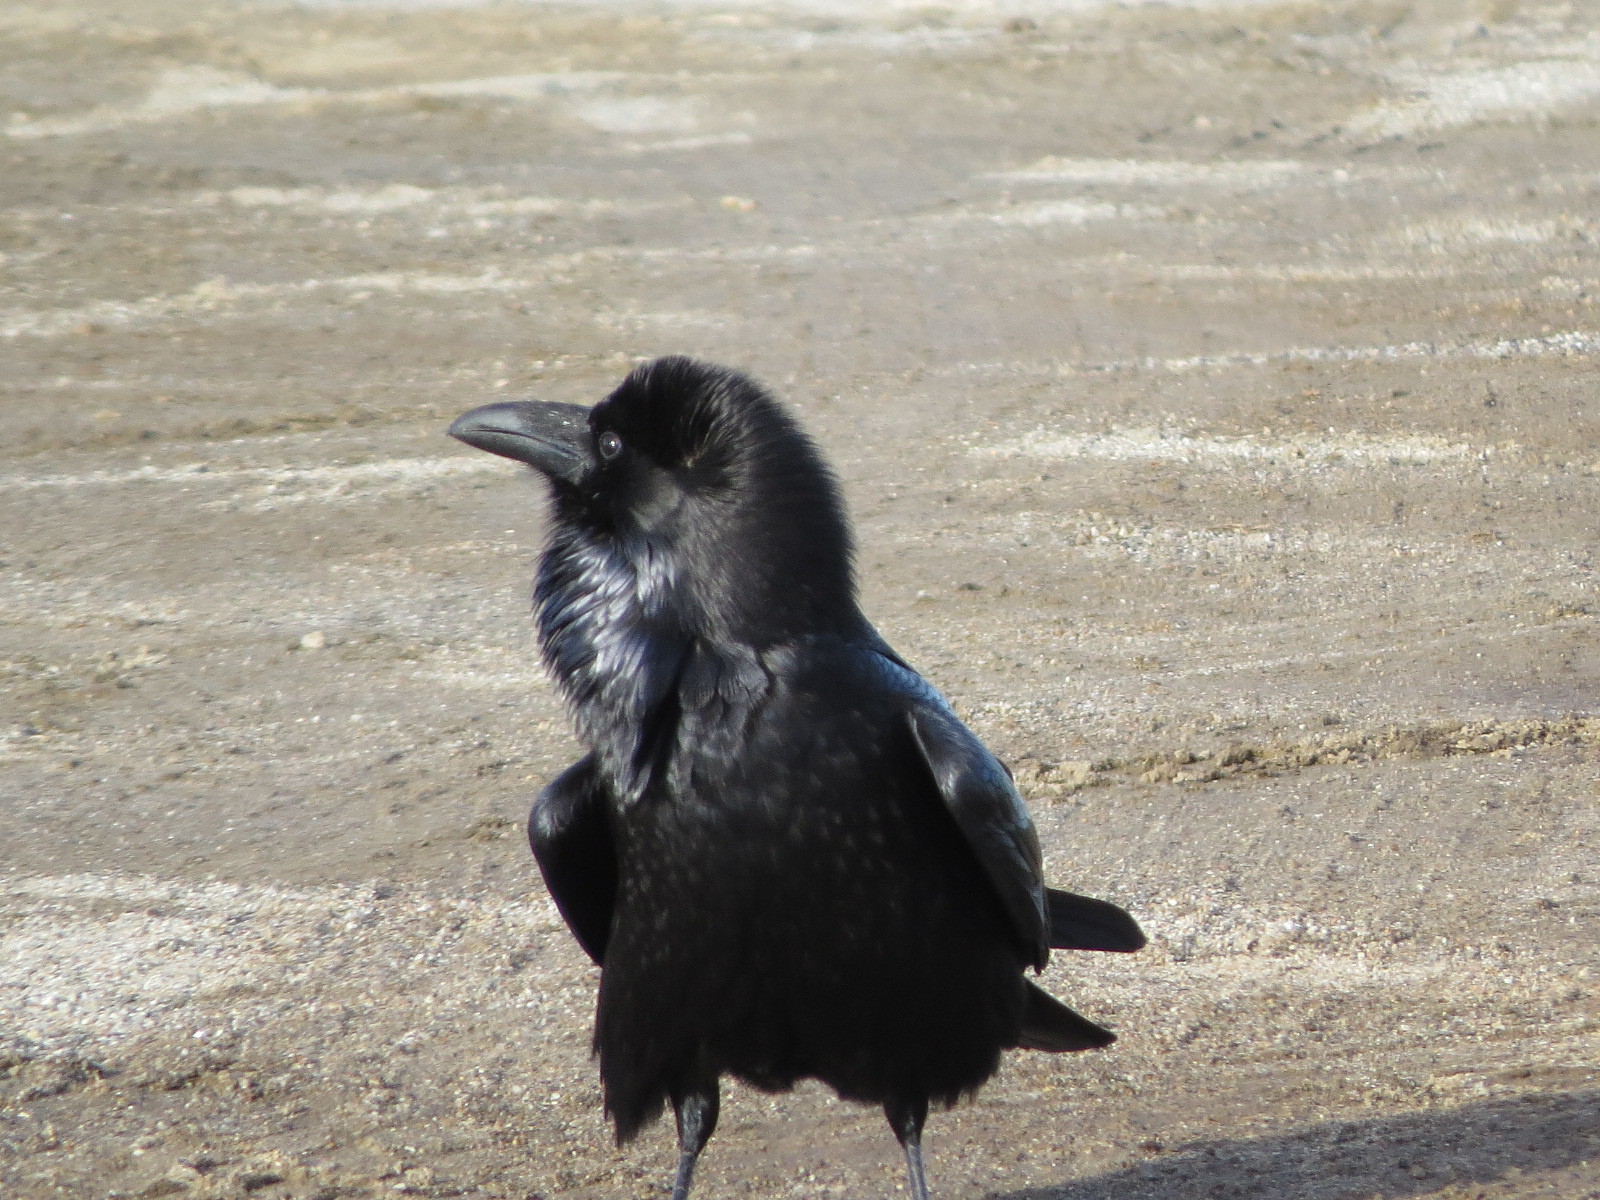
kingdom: Animalia
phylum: Chordata
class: Aves
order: Passeriformes
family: Corvidae
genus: Corvus
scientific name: Corvus corax
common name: Common raven
